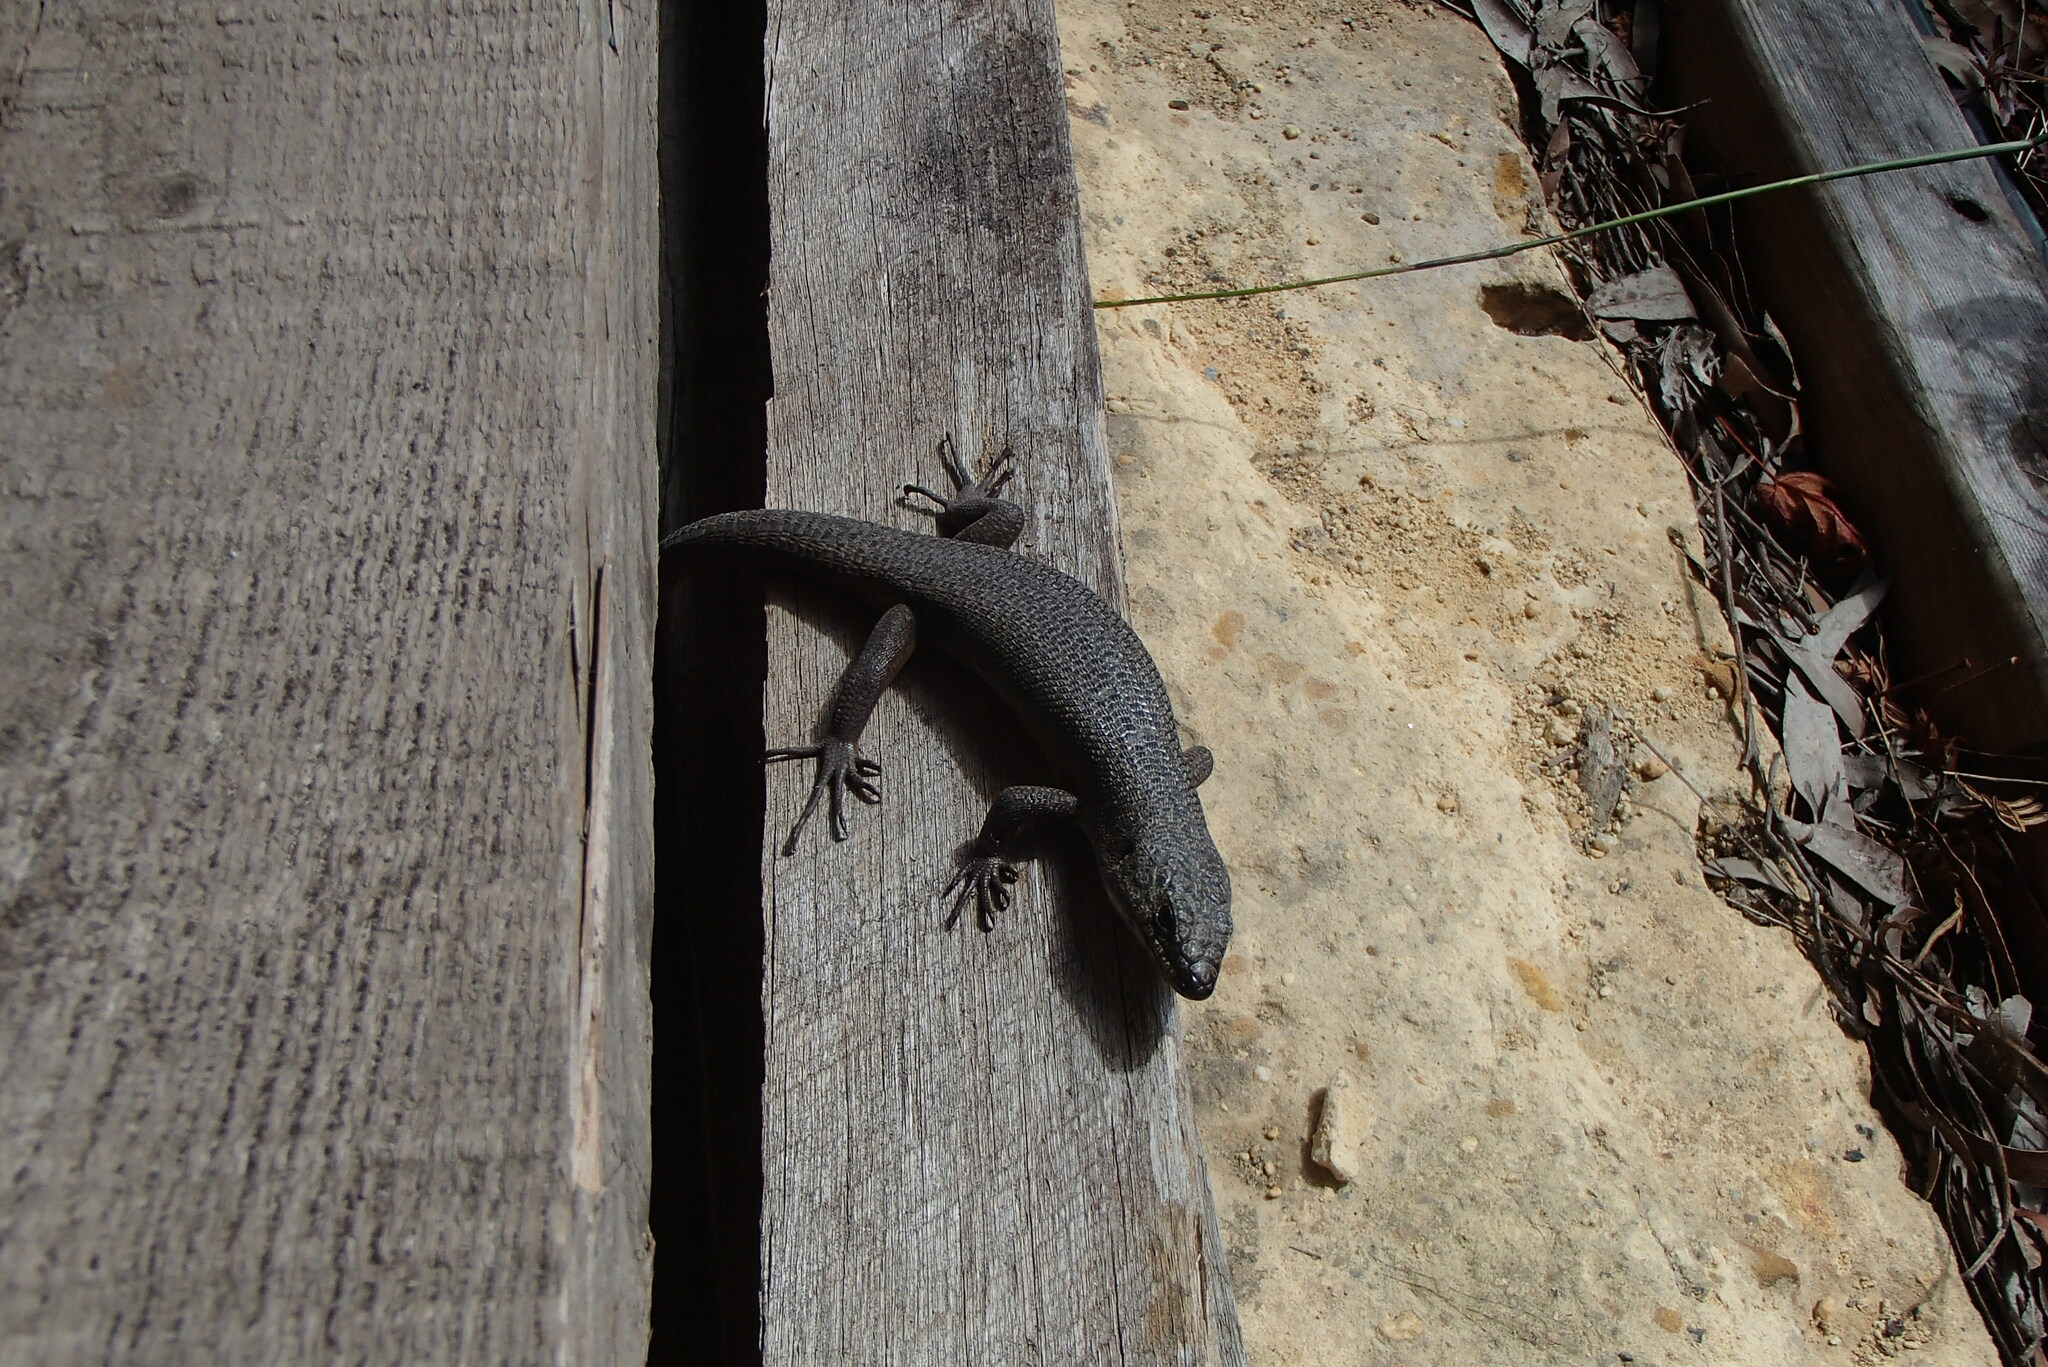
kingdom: Animalia
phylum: Chordata
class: Squamata
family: Scincidae
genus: Egernia
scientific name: Egernia saxatilis
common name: Black crevice-skink
